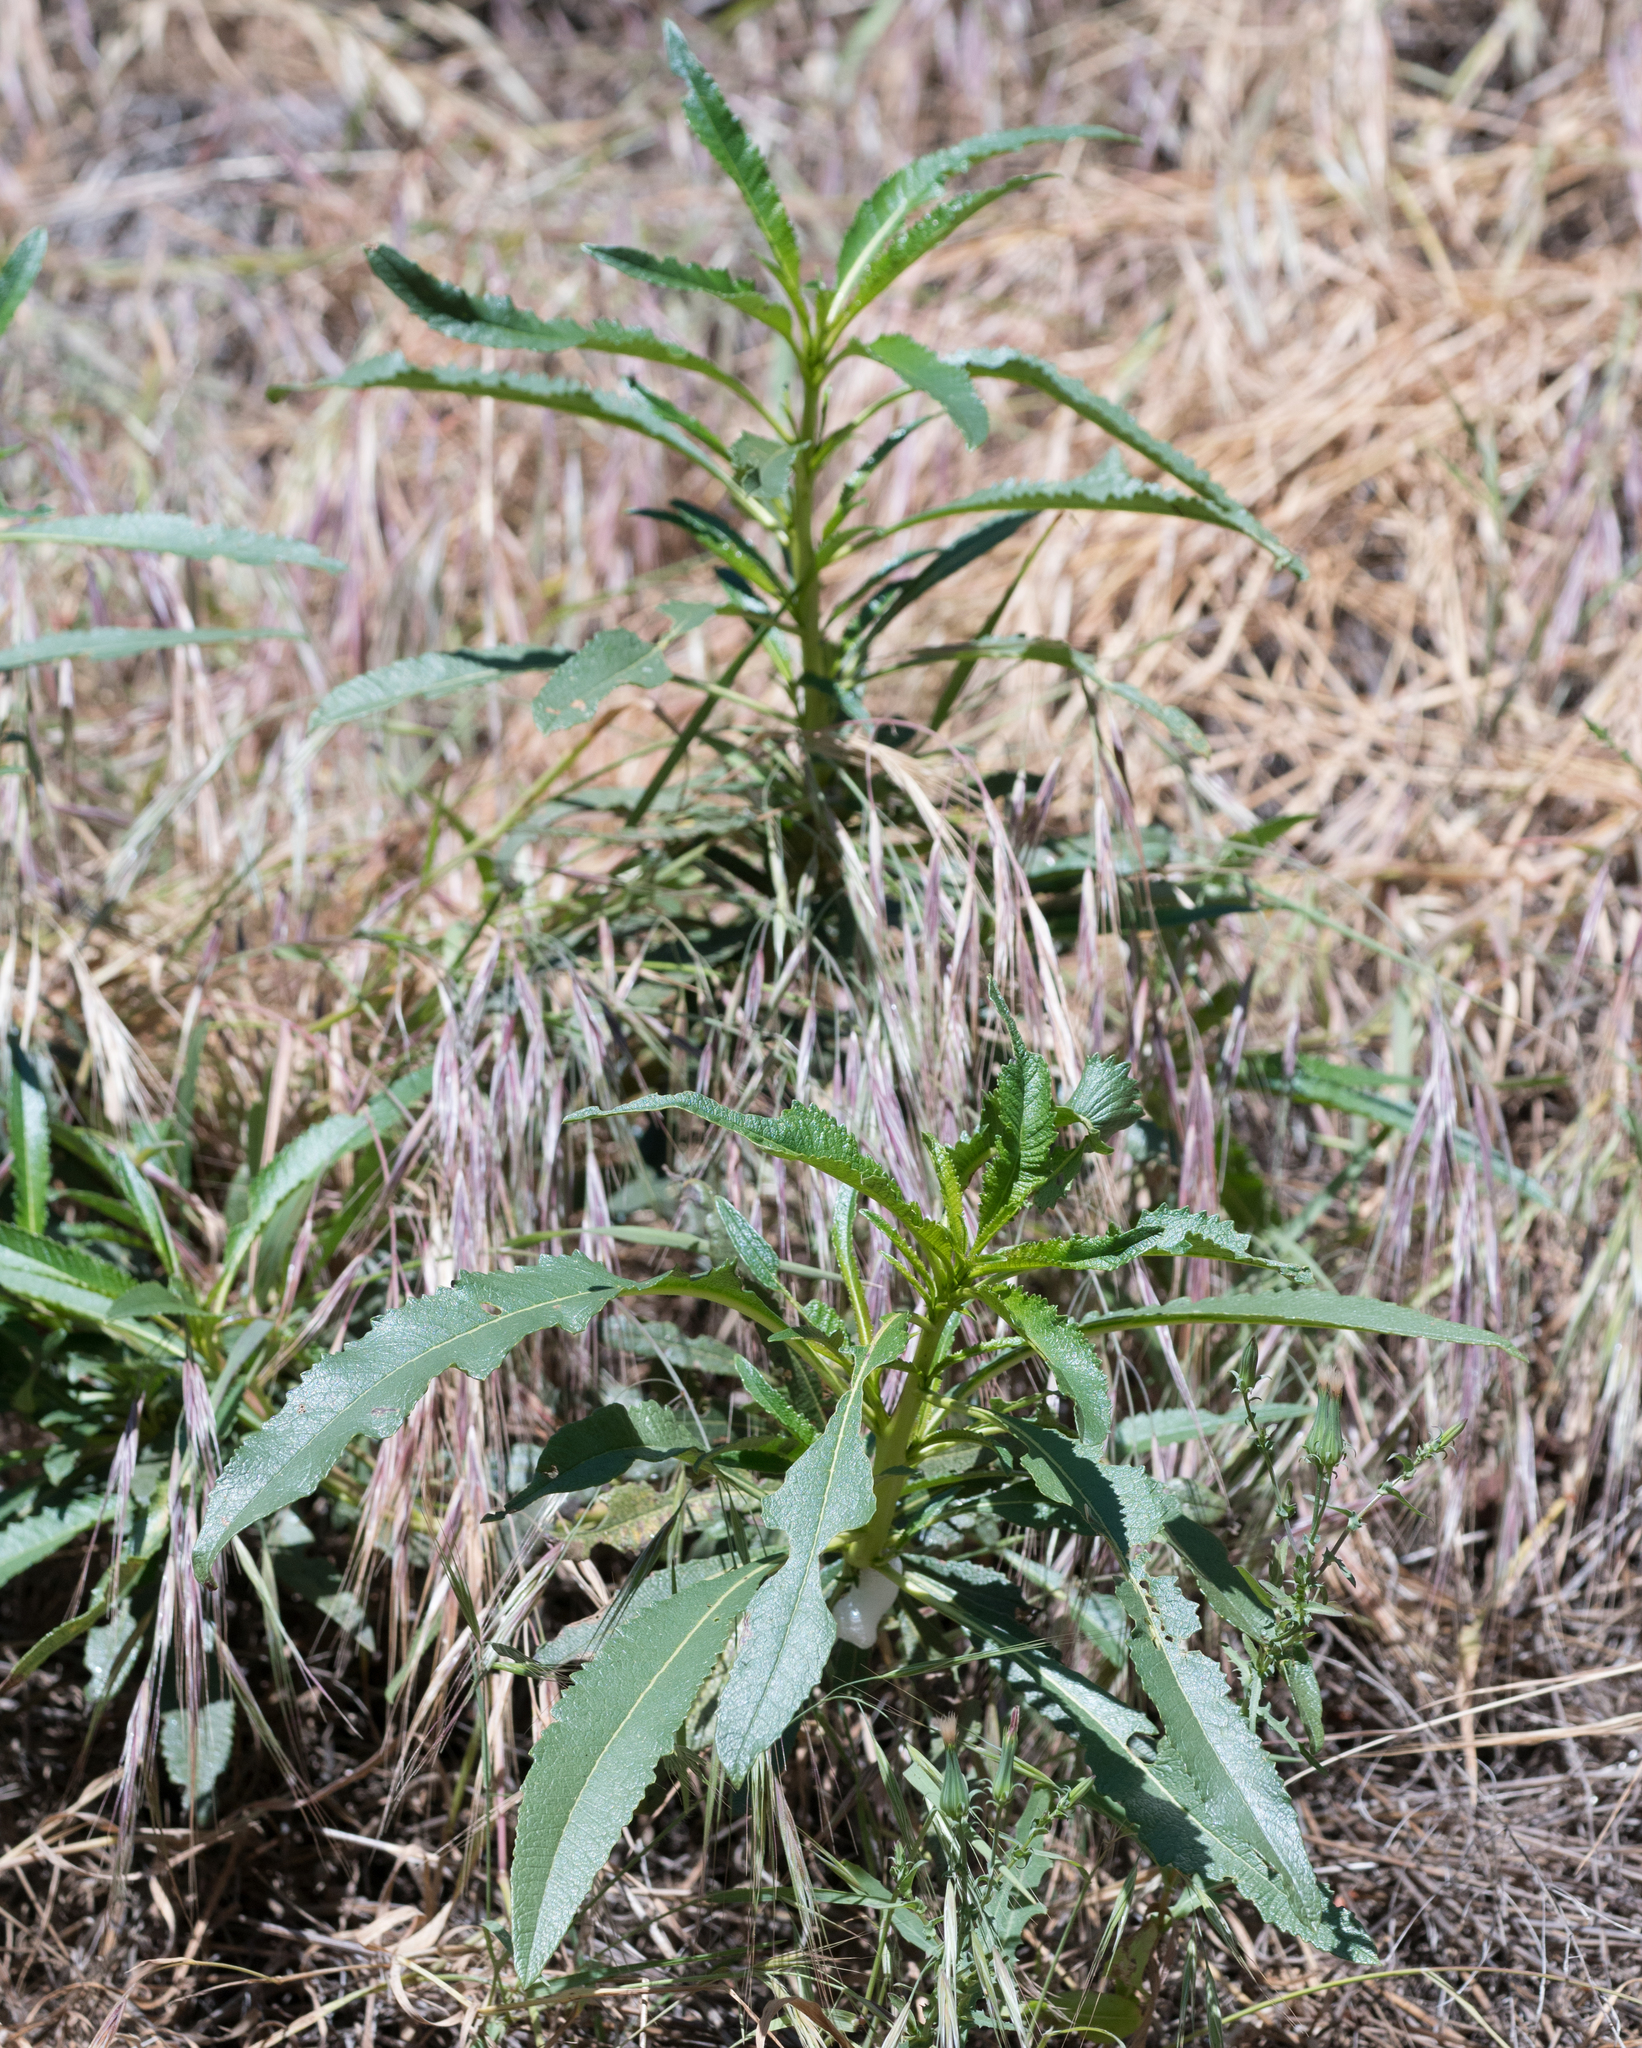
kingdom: Plantae
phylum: Tracheophyta
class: Magnoliopsida
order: Boraginales
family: Namaceae
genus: Eriodictyon
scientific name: Eriodictyon trichocalyx
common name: Hairy yerba-santa
